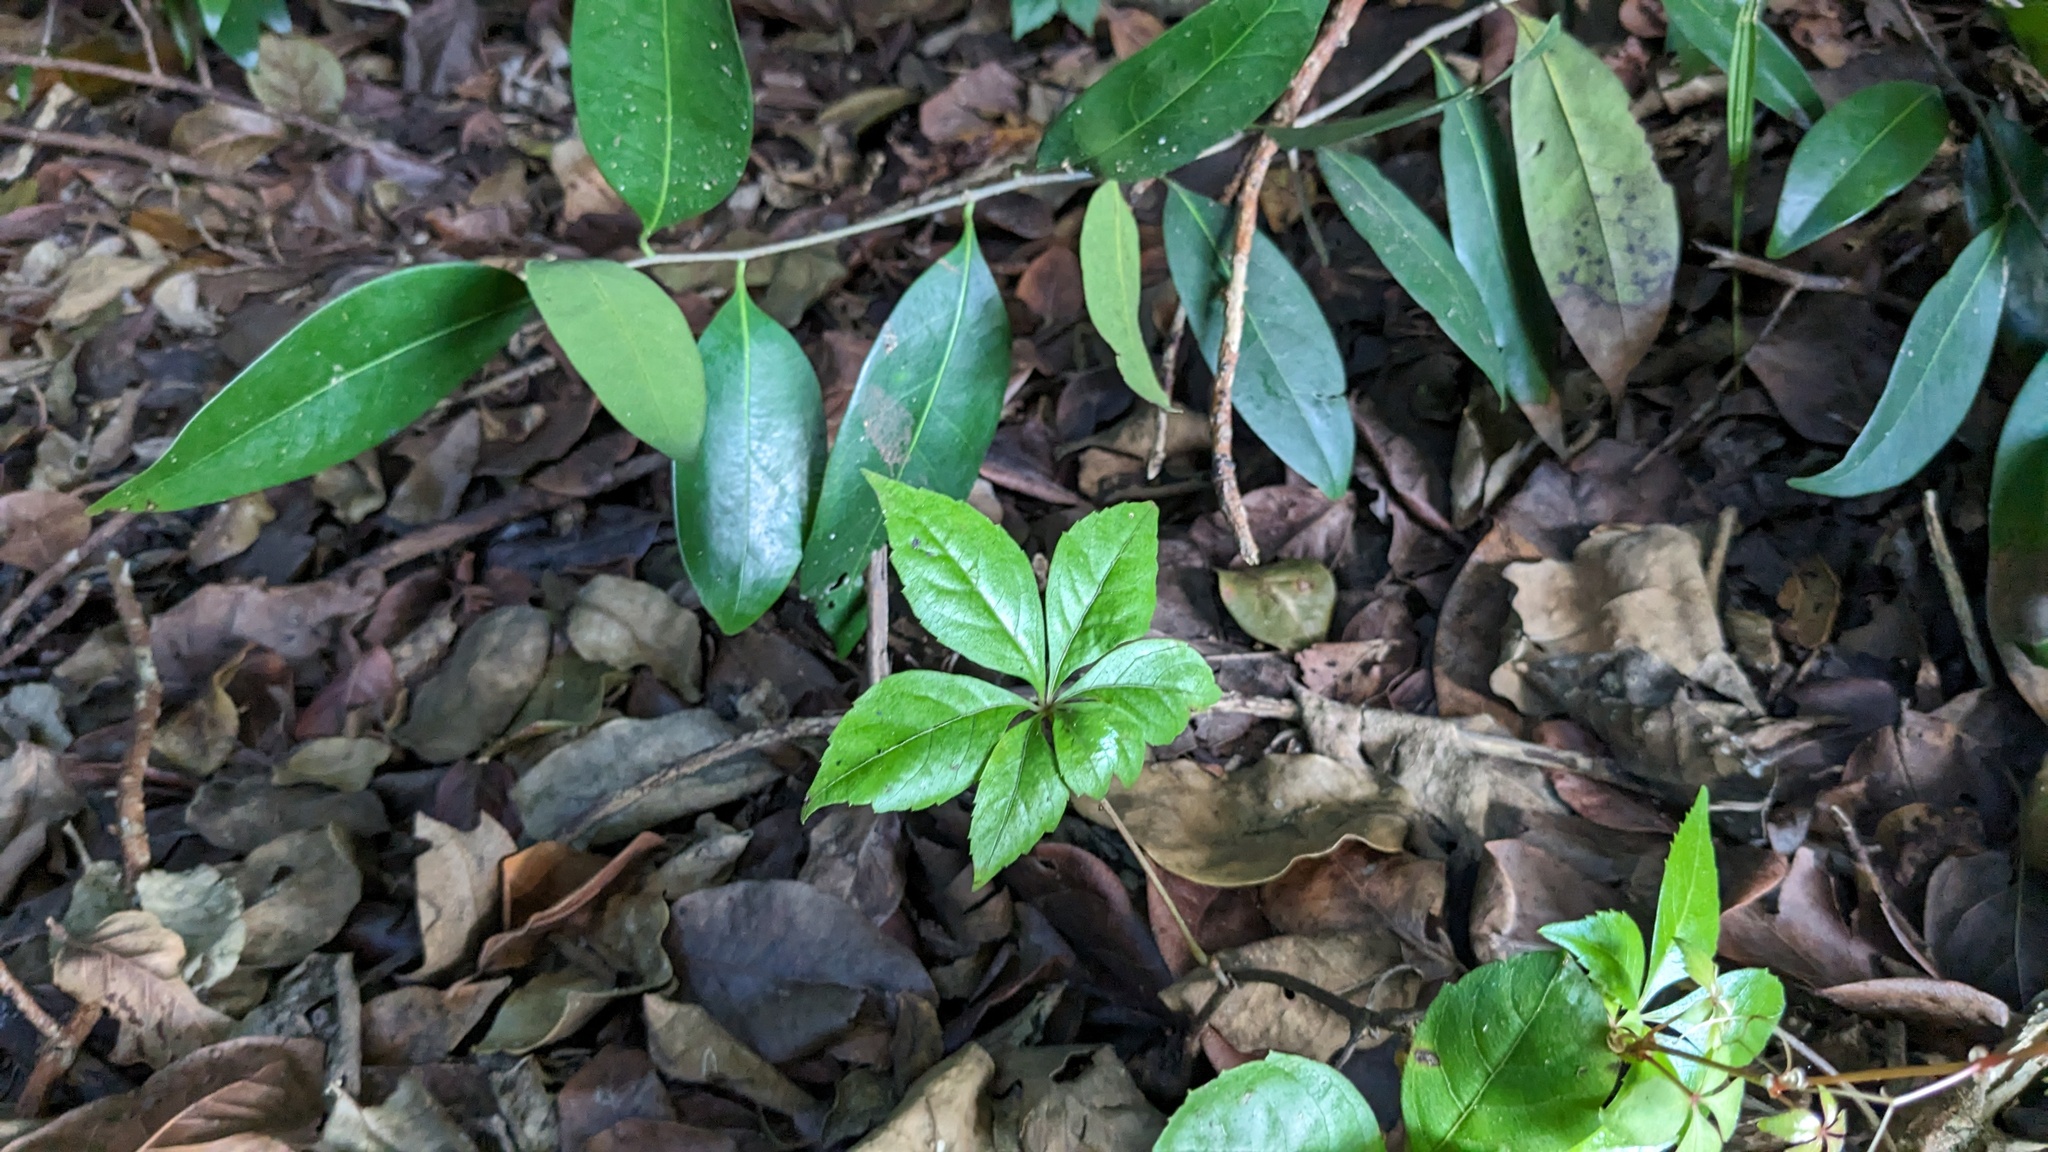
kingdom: Plantae
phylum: Tracheophyta
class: Magnoliopsida
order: Vitales
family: Vitaceae
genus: Parthenocissus
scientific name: Parthenocissus quinquefolia
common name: Virginia-creeper
